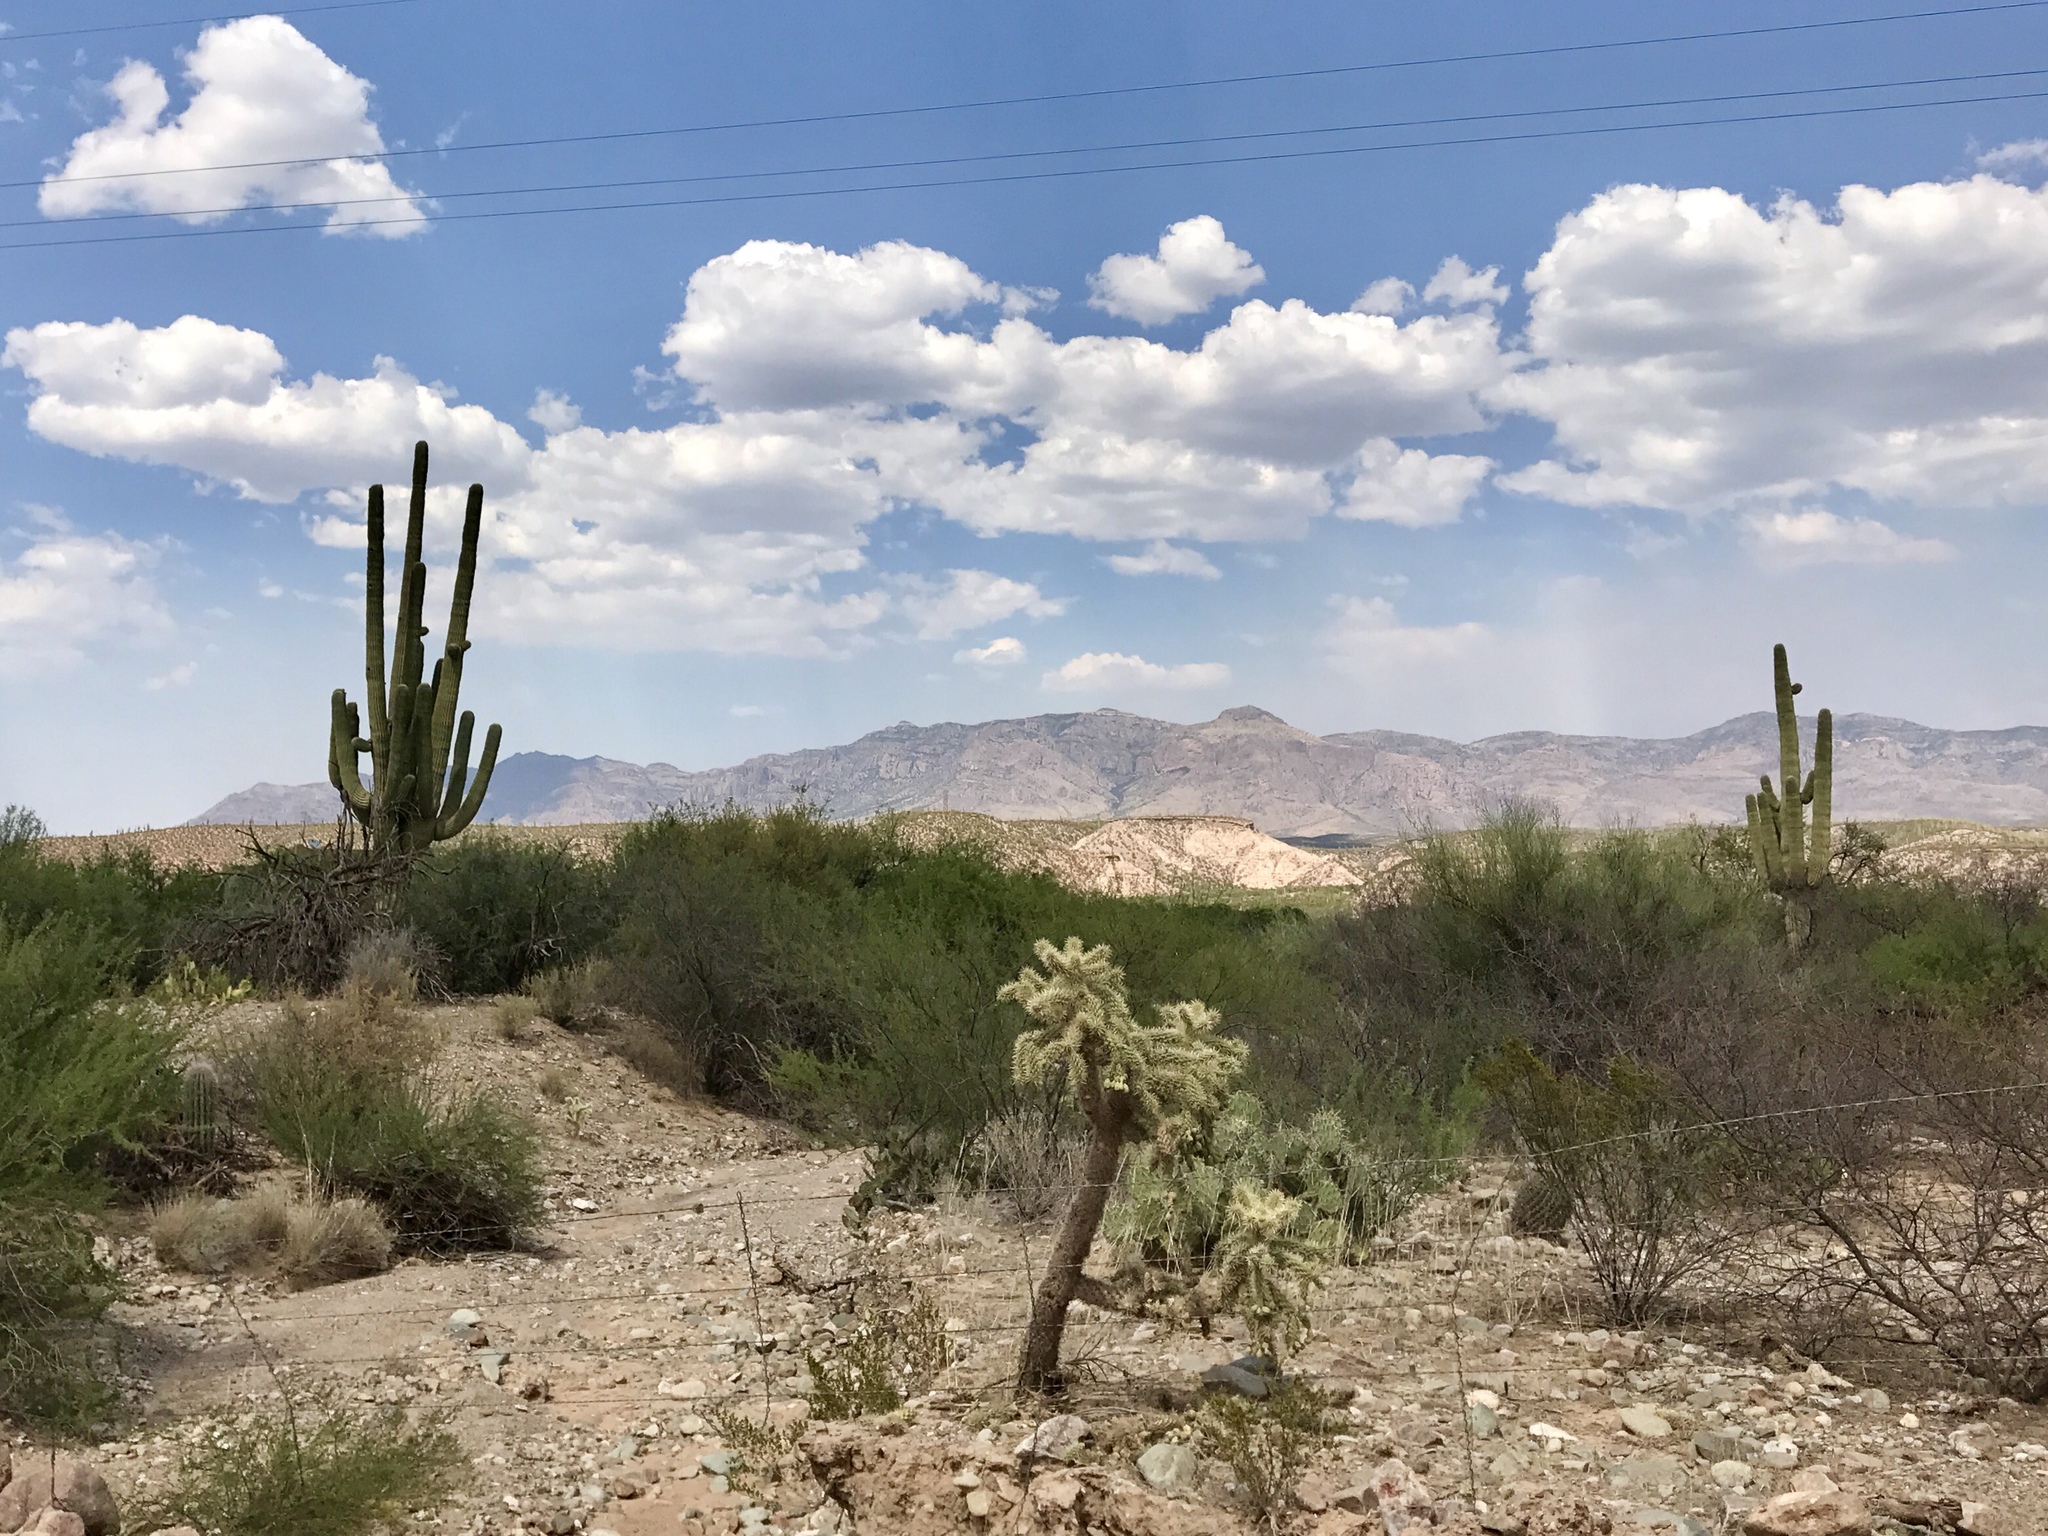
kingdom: Plantae
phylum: Tracheophyta
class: Magnoliopsida
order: Caryophyllales
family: Cactaceae
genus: Carnegiea
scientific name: Carnegiea gigantea
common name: Saguaro
